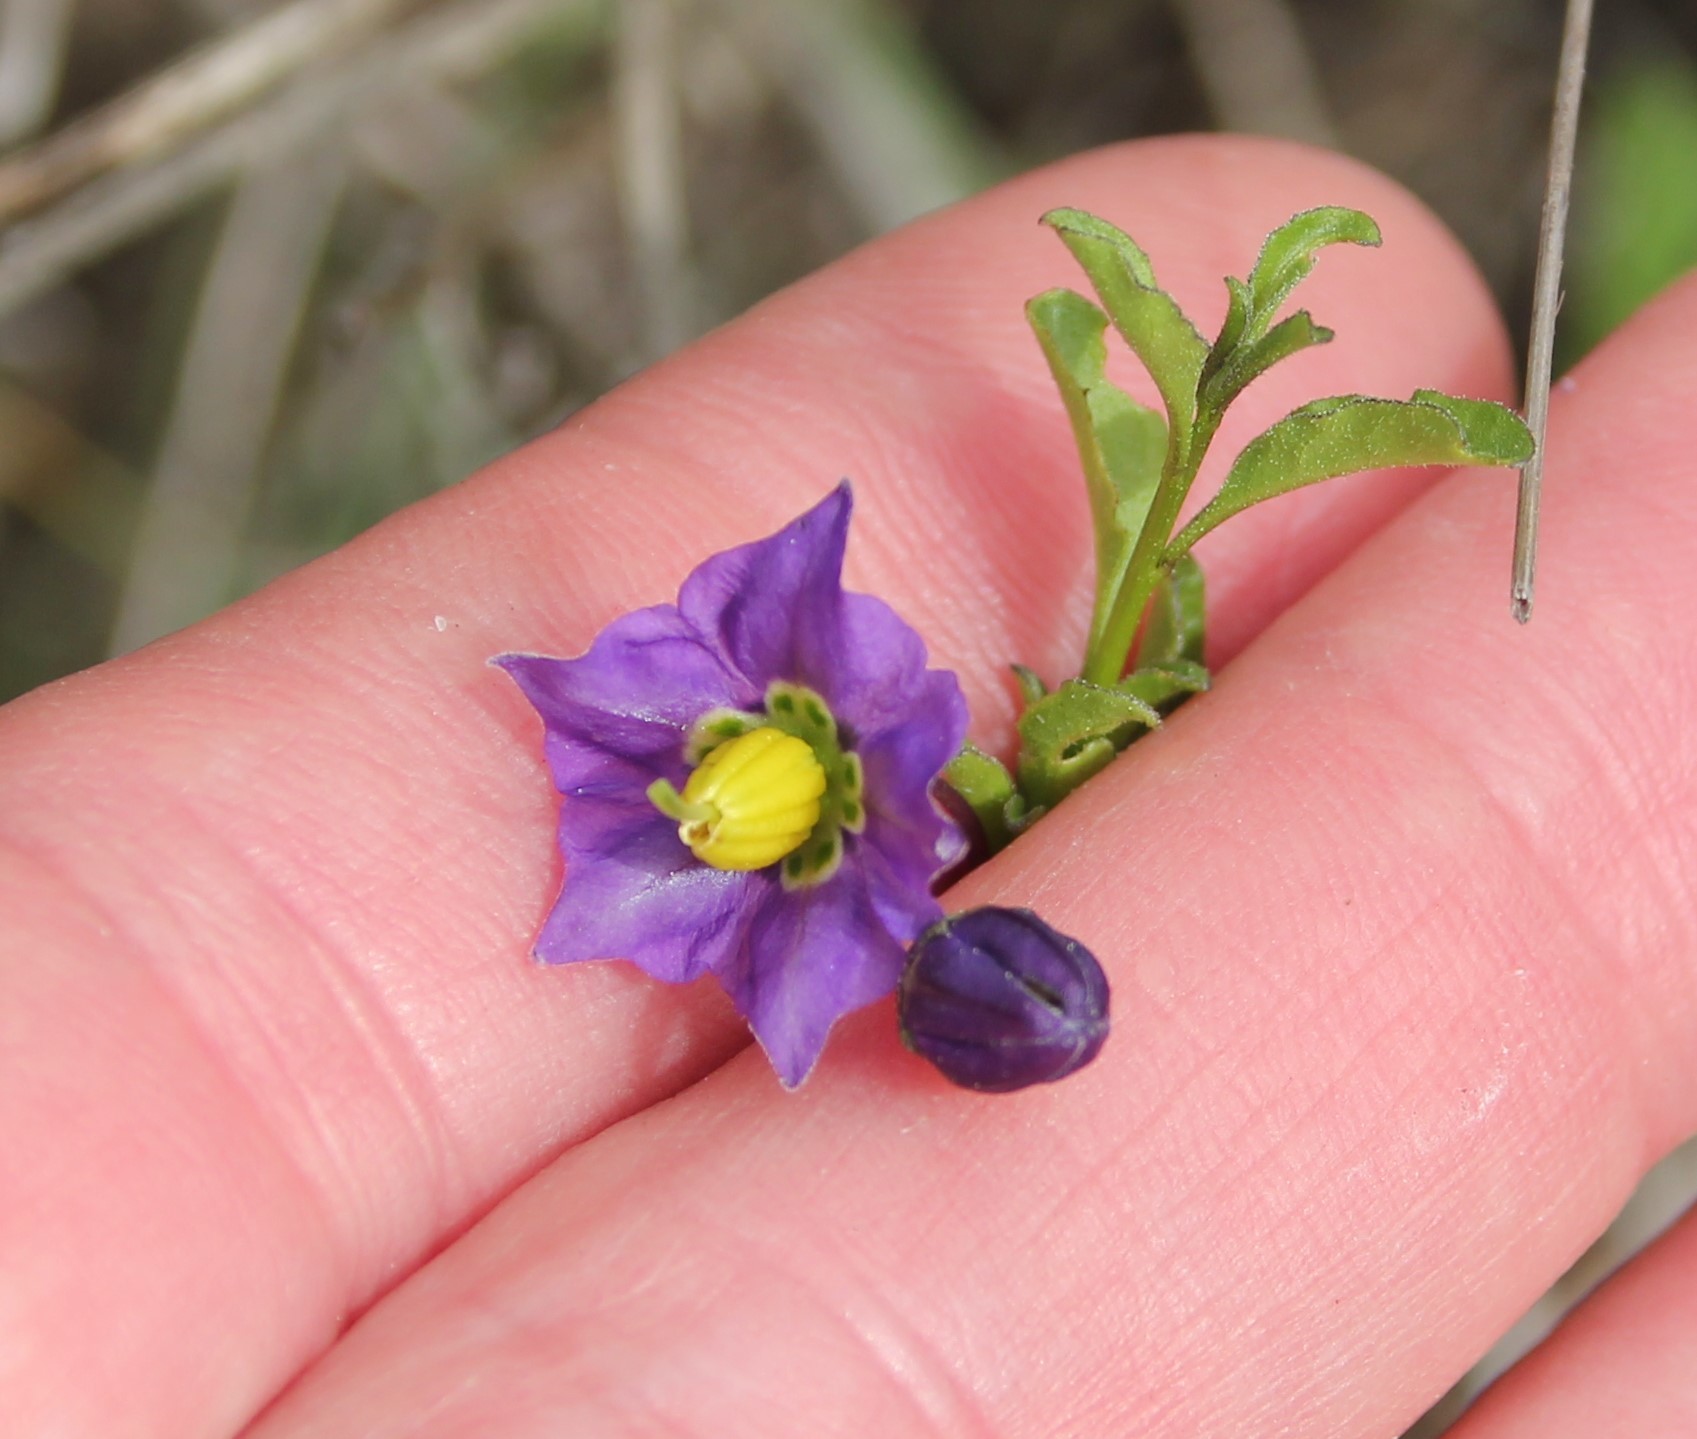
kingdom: Plantae
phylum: Tracheophyta
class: Magnoliopsida
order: Solanales
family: Solanaceae
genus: Solanum
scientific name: Solanum umbelliferum
